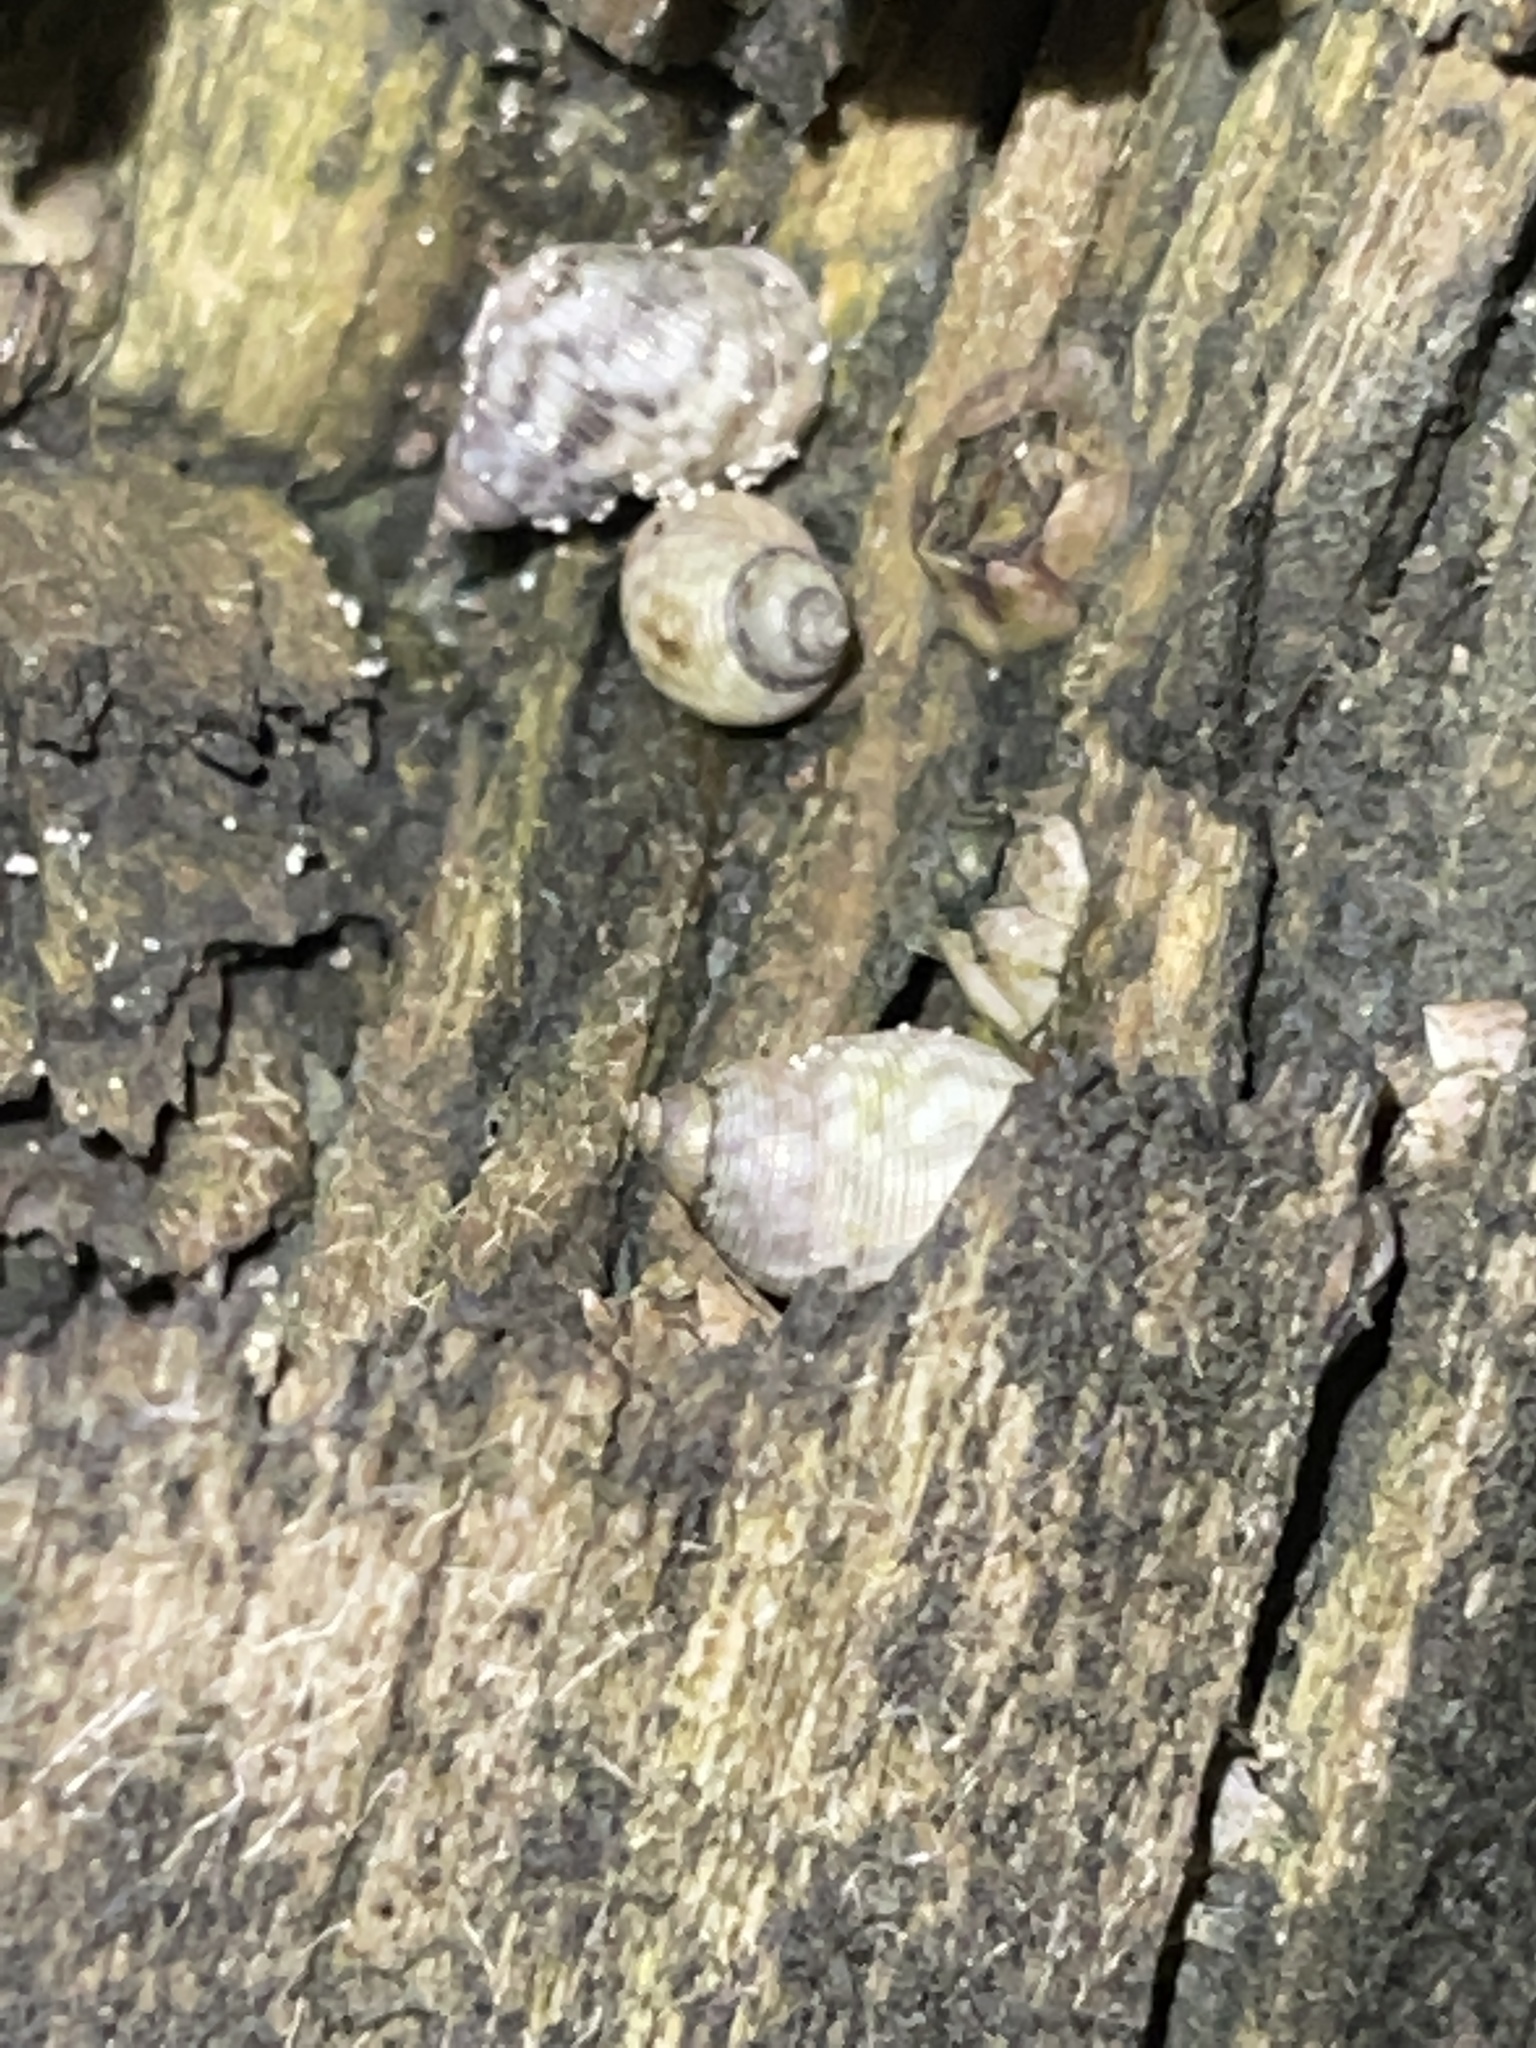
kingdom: Animalia
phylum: Mollusca
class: Gastropoda
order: Littorinimorpha
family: Littorinidae
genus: Littoraria
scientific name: Littoraria nebulosa
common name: Cloudy periwinkle
